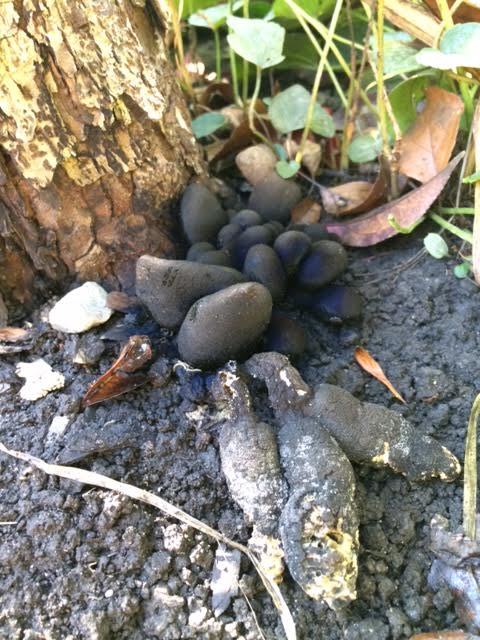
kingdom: Fungi
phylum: Ascomycota
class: Sordariomycetes
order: Xylariales
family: Xylariaceae
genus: Xylaria
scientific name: Xylaria polymorpha
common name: Dead man's fingers
